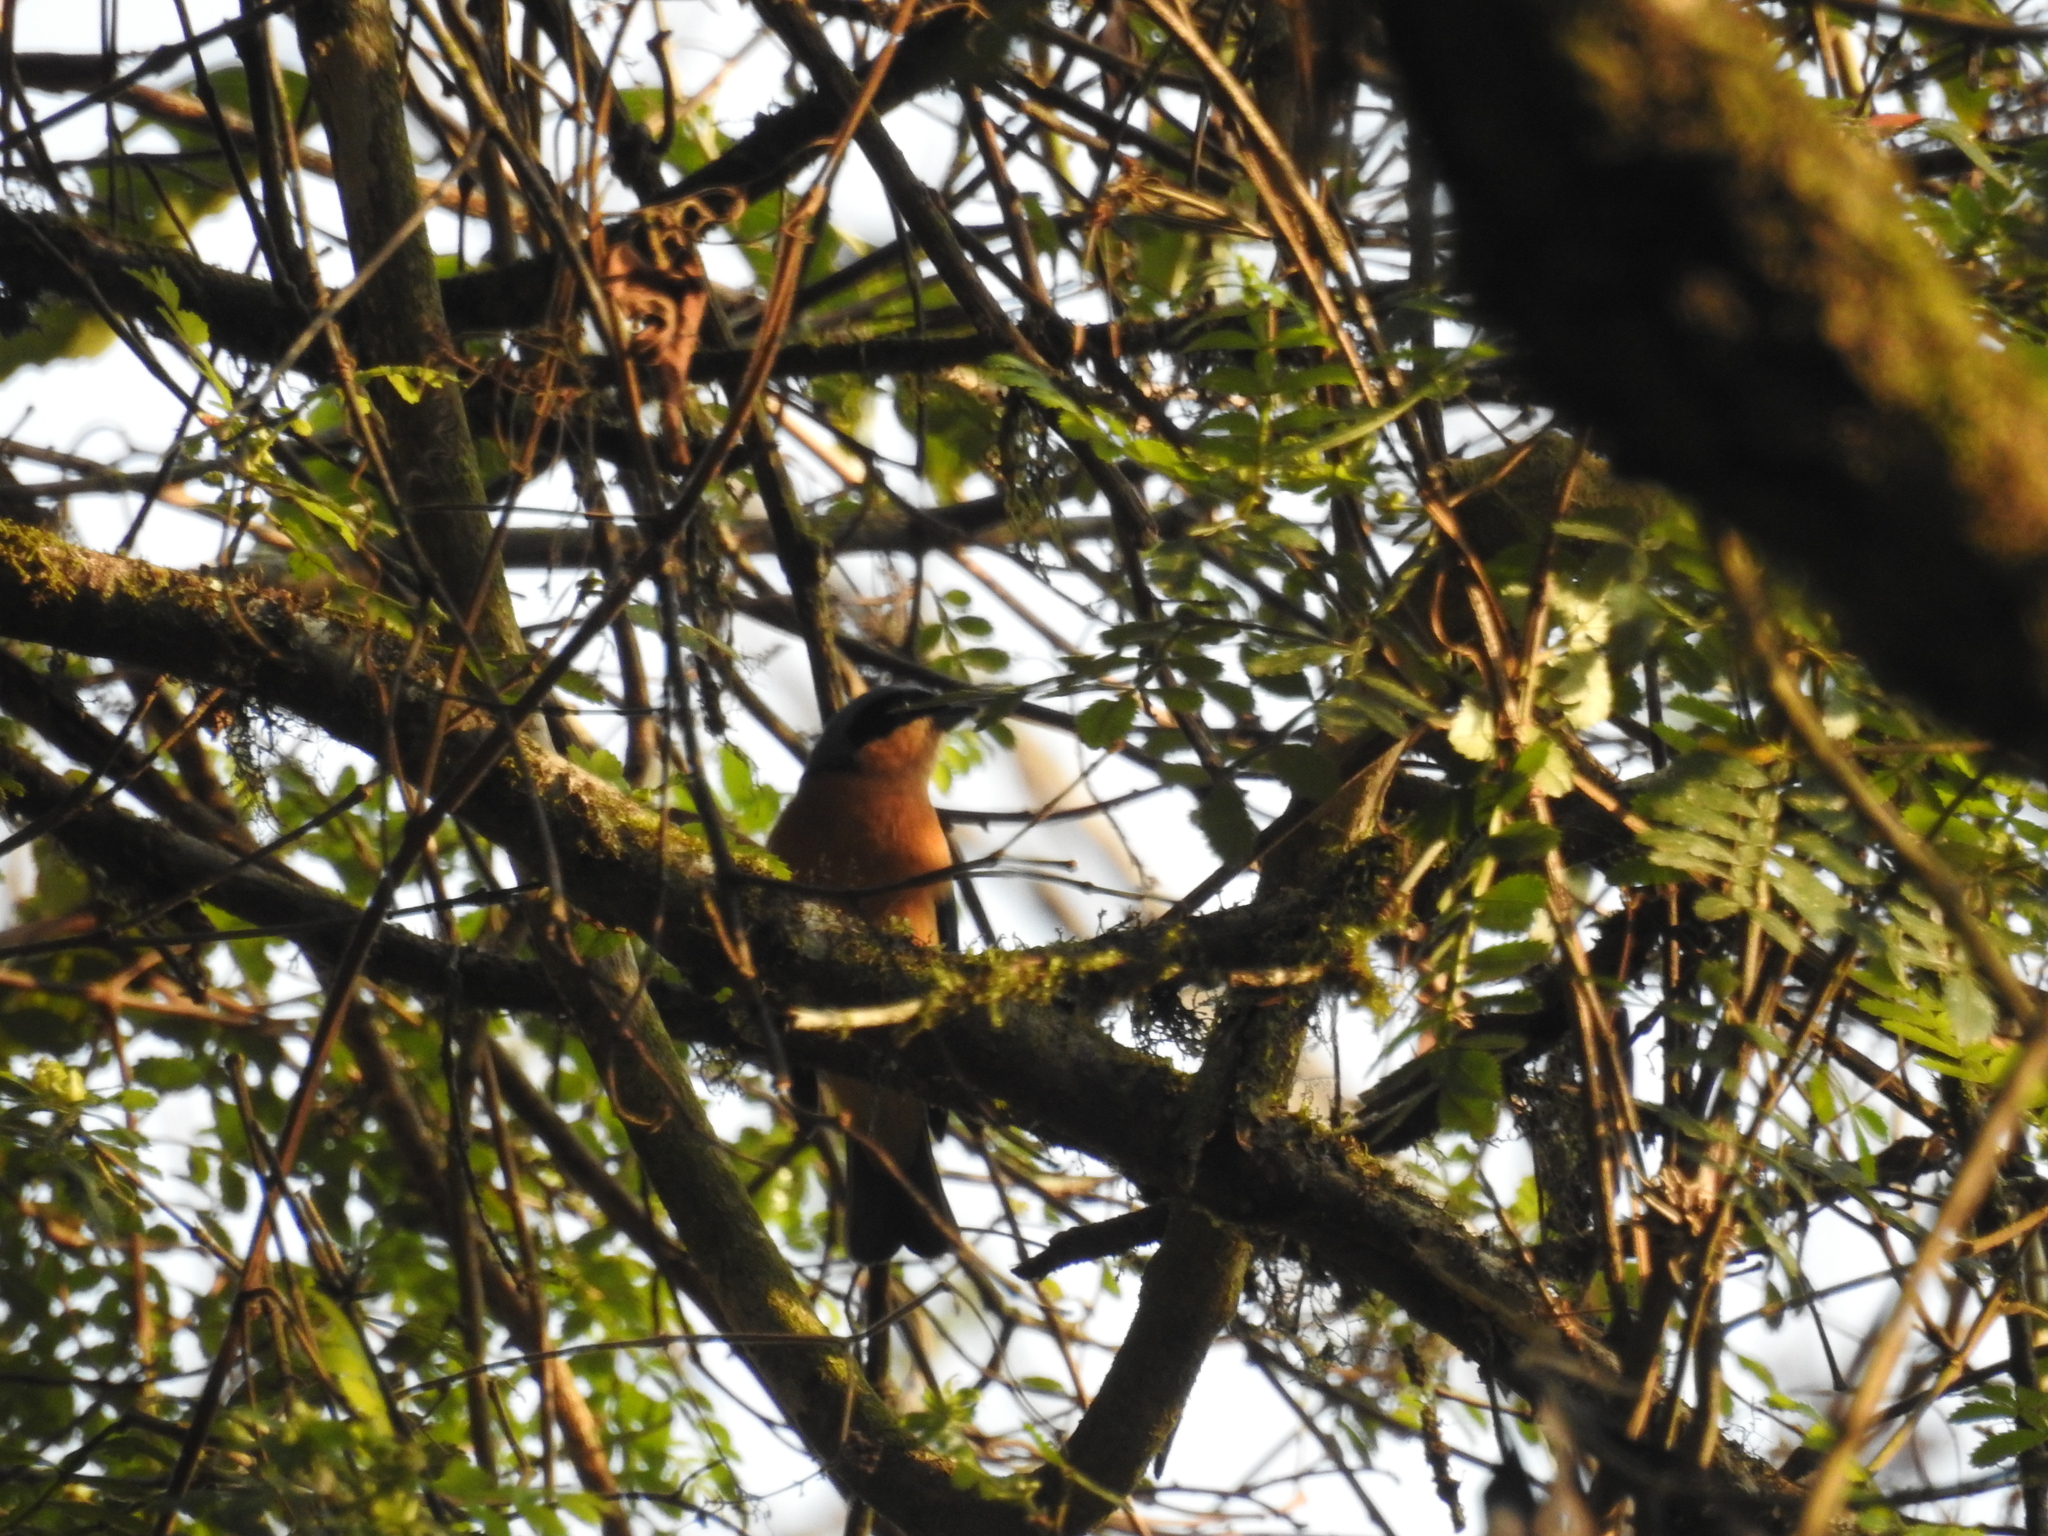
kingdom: Animalia
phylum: Chordata
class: Aves
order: Passeriformes
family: Thraupidae
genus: Pipraeidea
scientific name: Pipraeidea melanonota
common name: Fawn-breasted tanager
